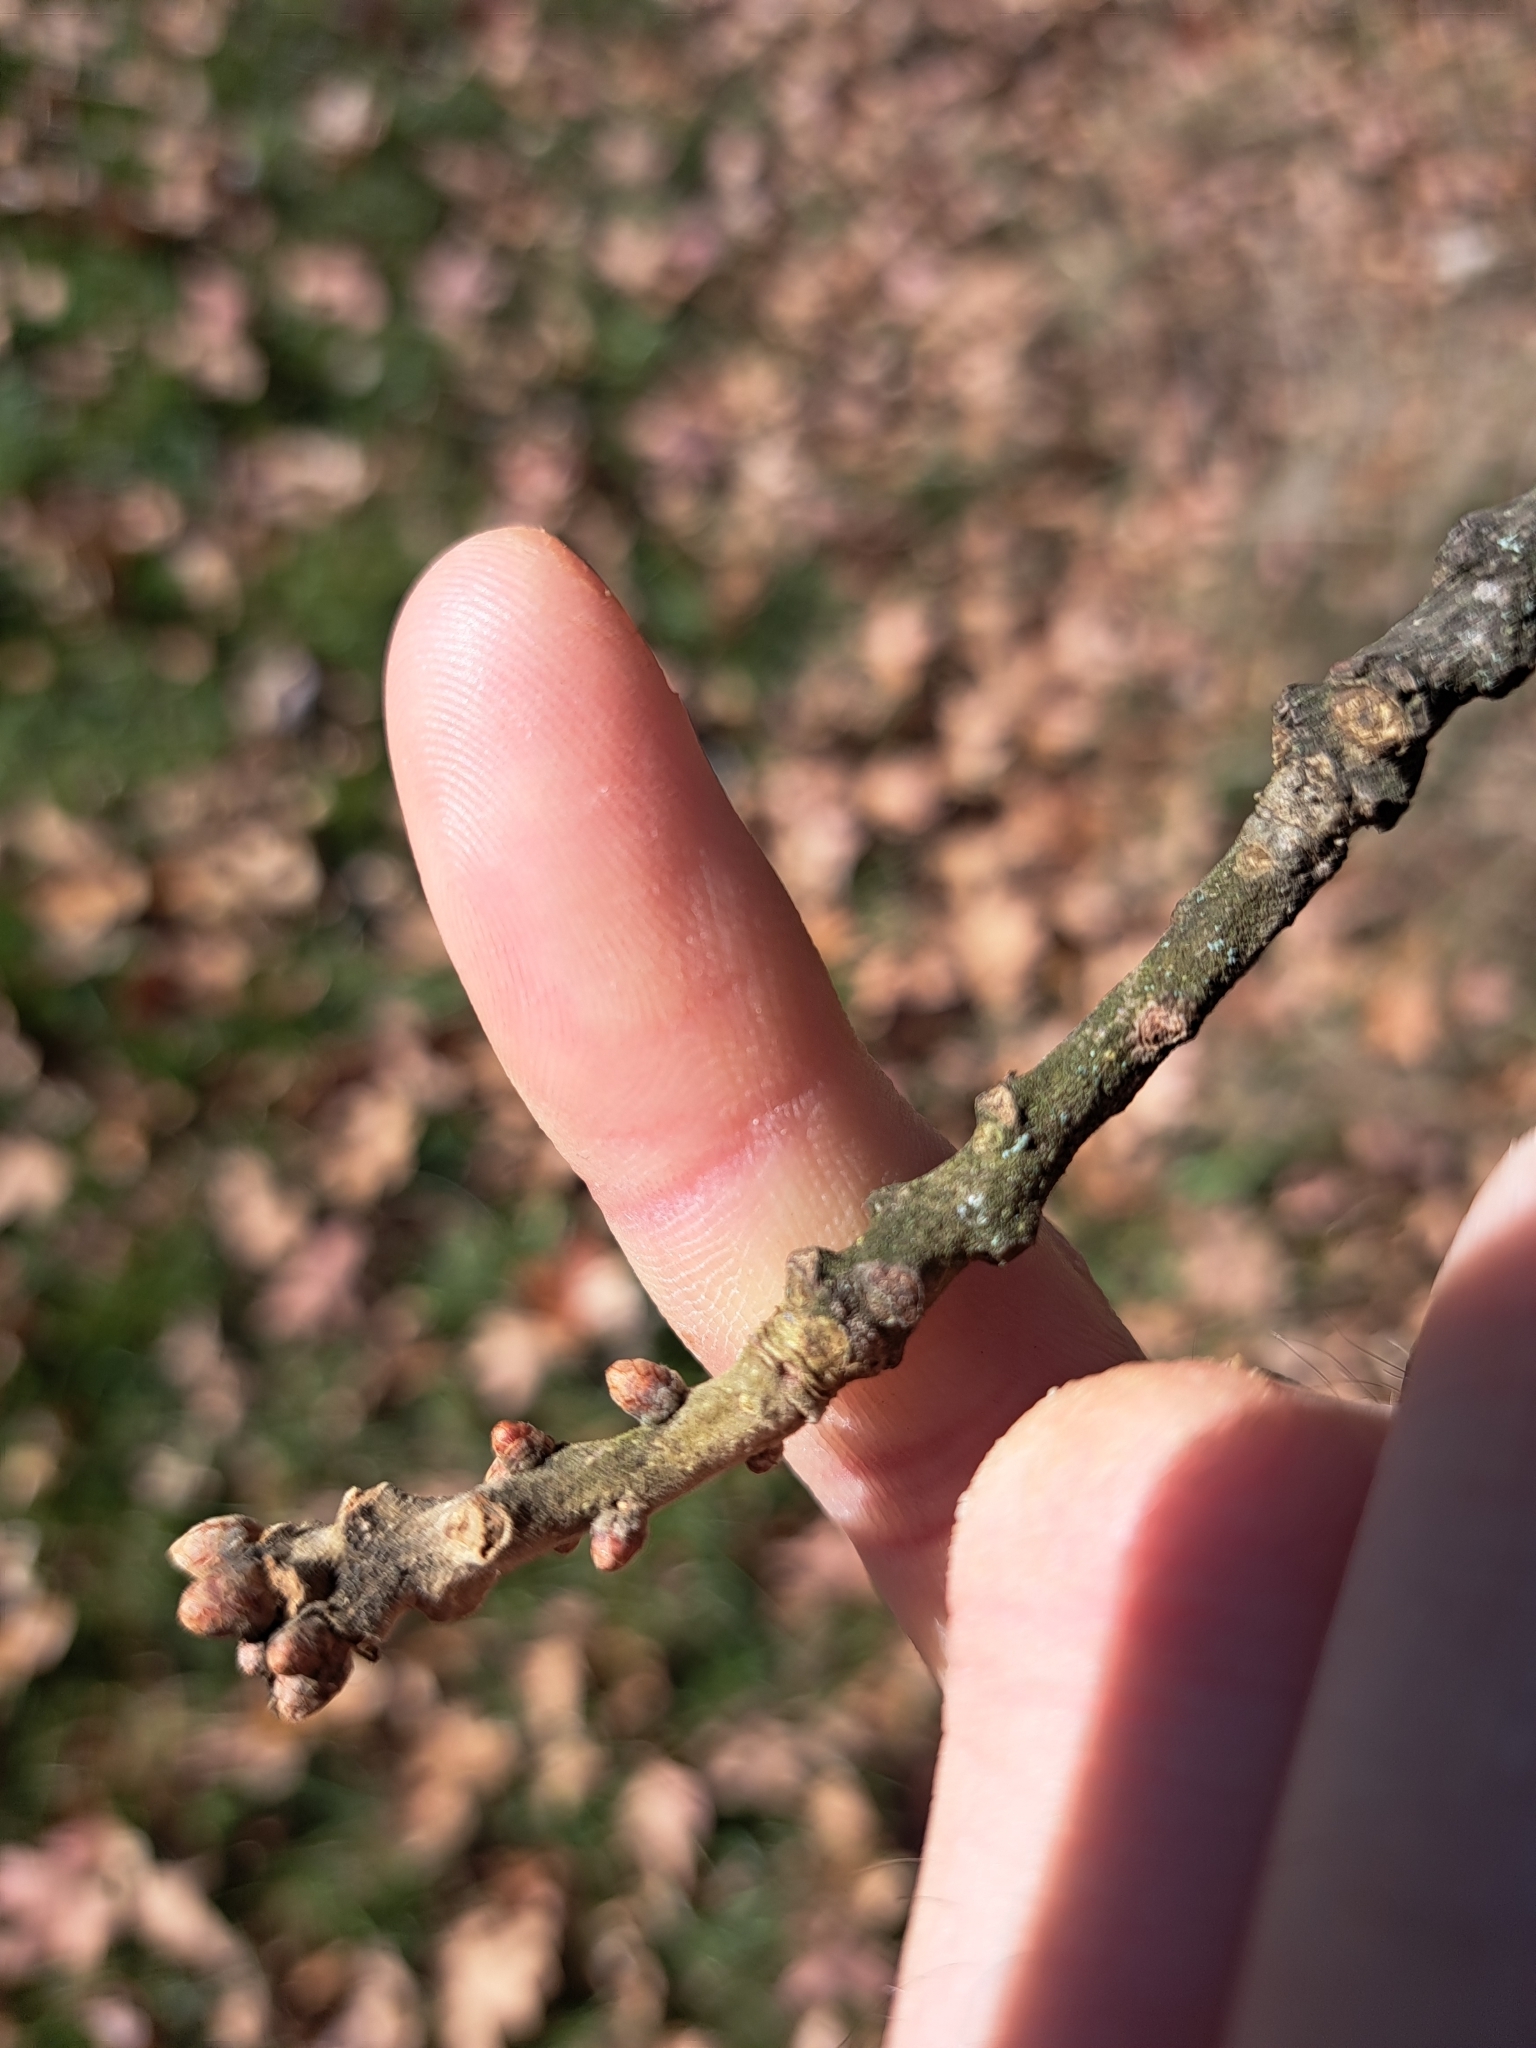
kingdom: Plantae
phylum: Tracheophyta
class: Magnoliopsida
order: Fagales
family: Fagaceae
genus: Quercus
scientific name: Quercus stellata
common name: Post oak
